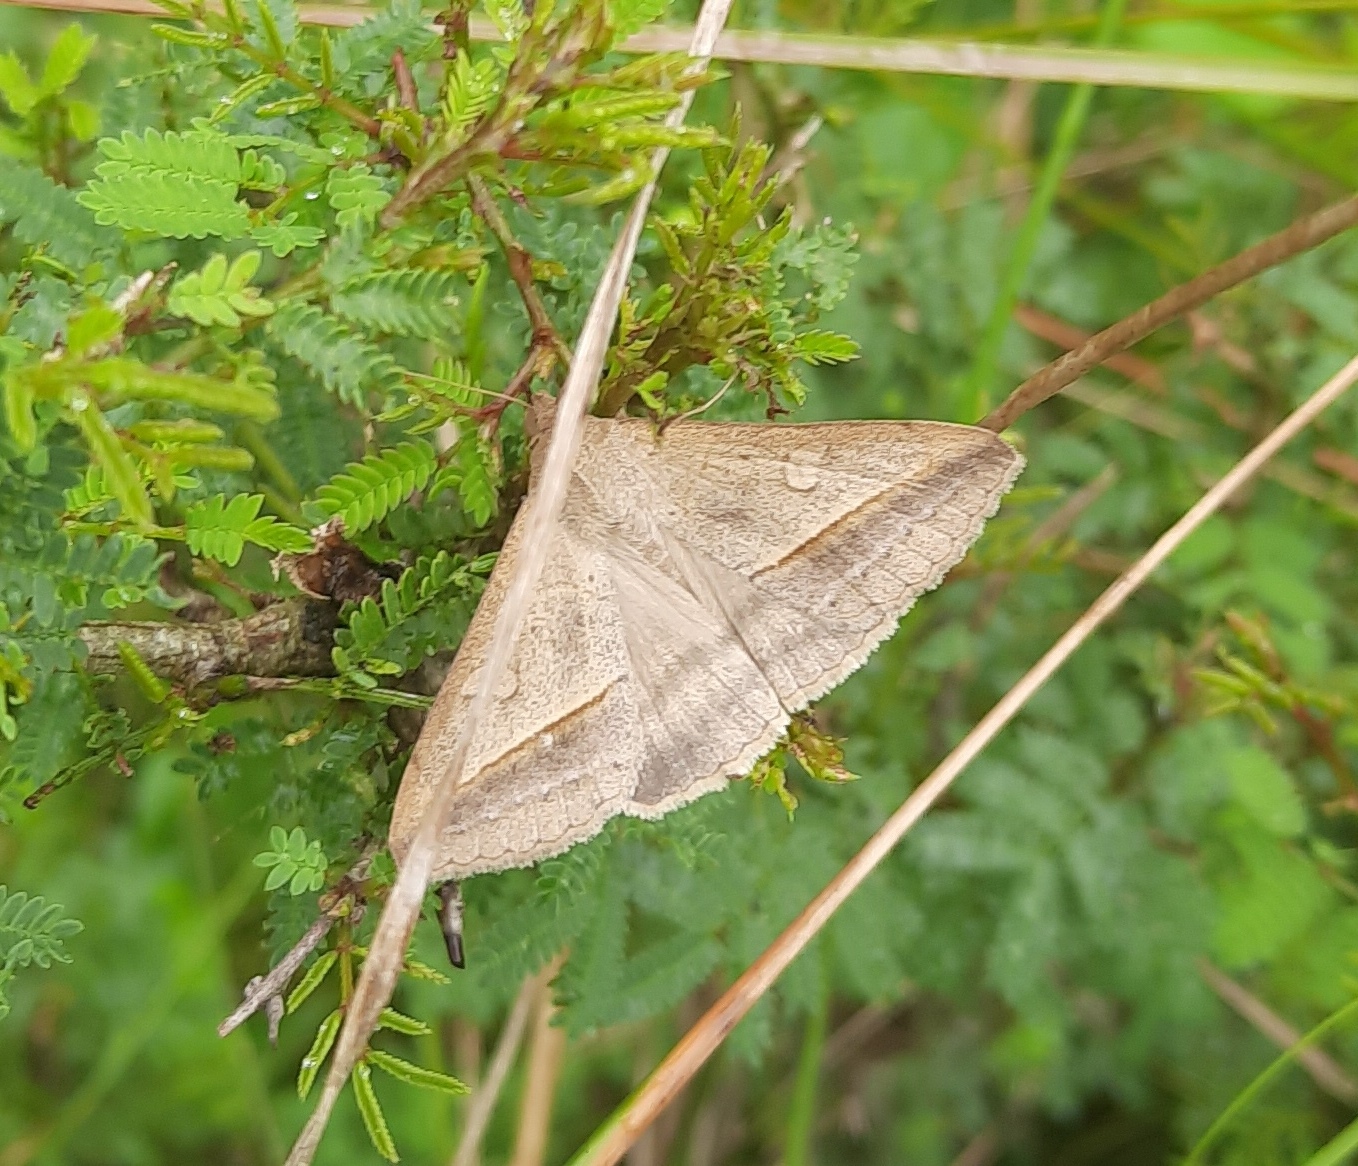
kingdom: Animalia
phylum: Arthropoda
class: Insecta
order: Lepidoptera
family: Erebidae
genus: Mocis
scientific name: Mocis frugalis
